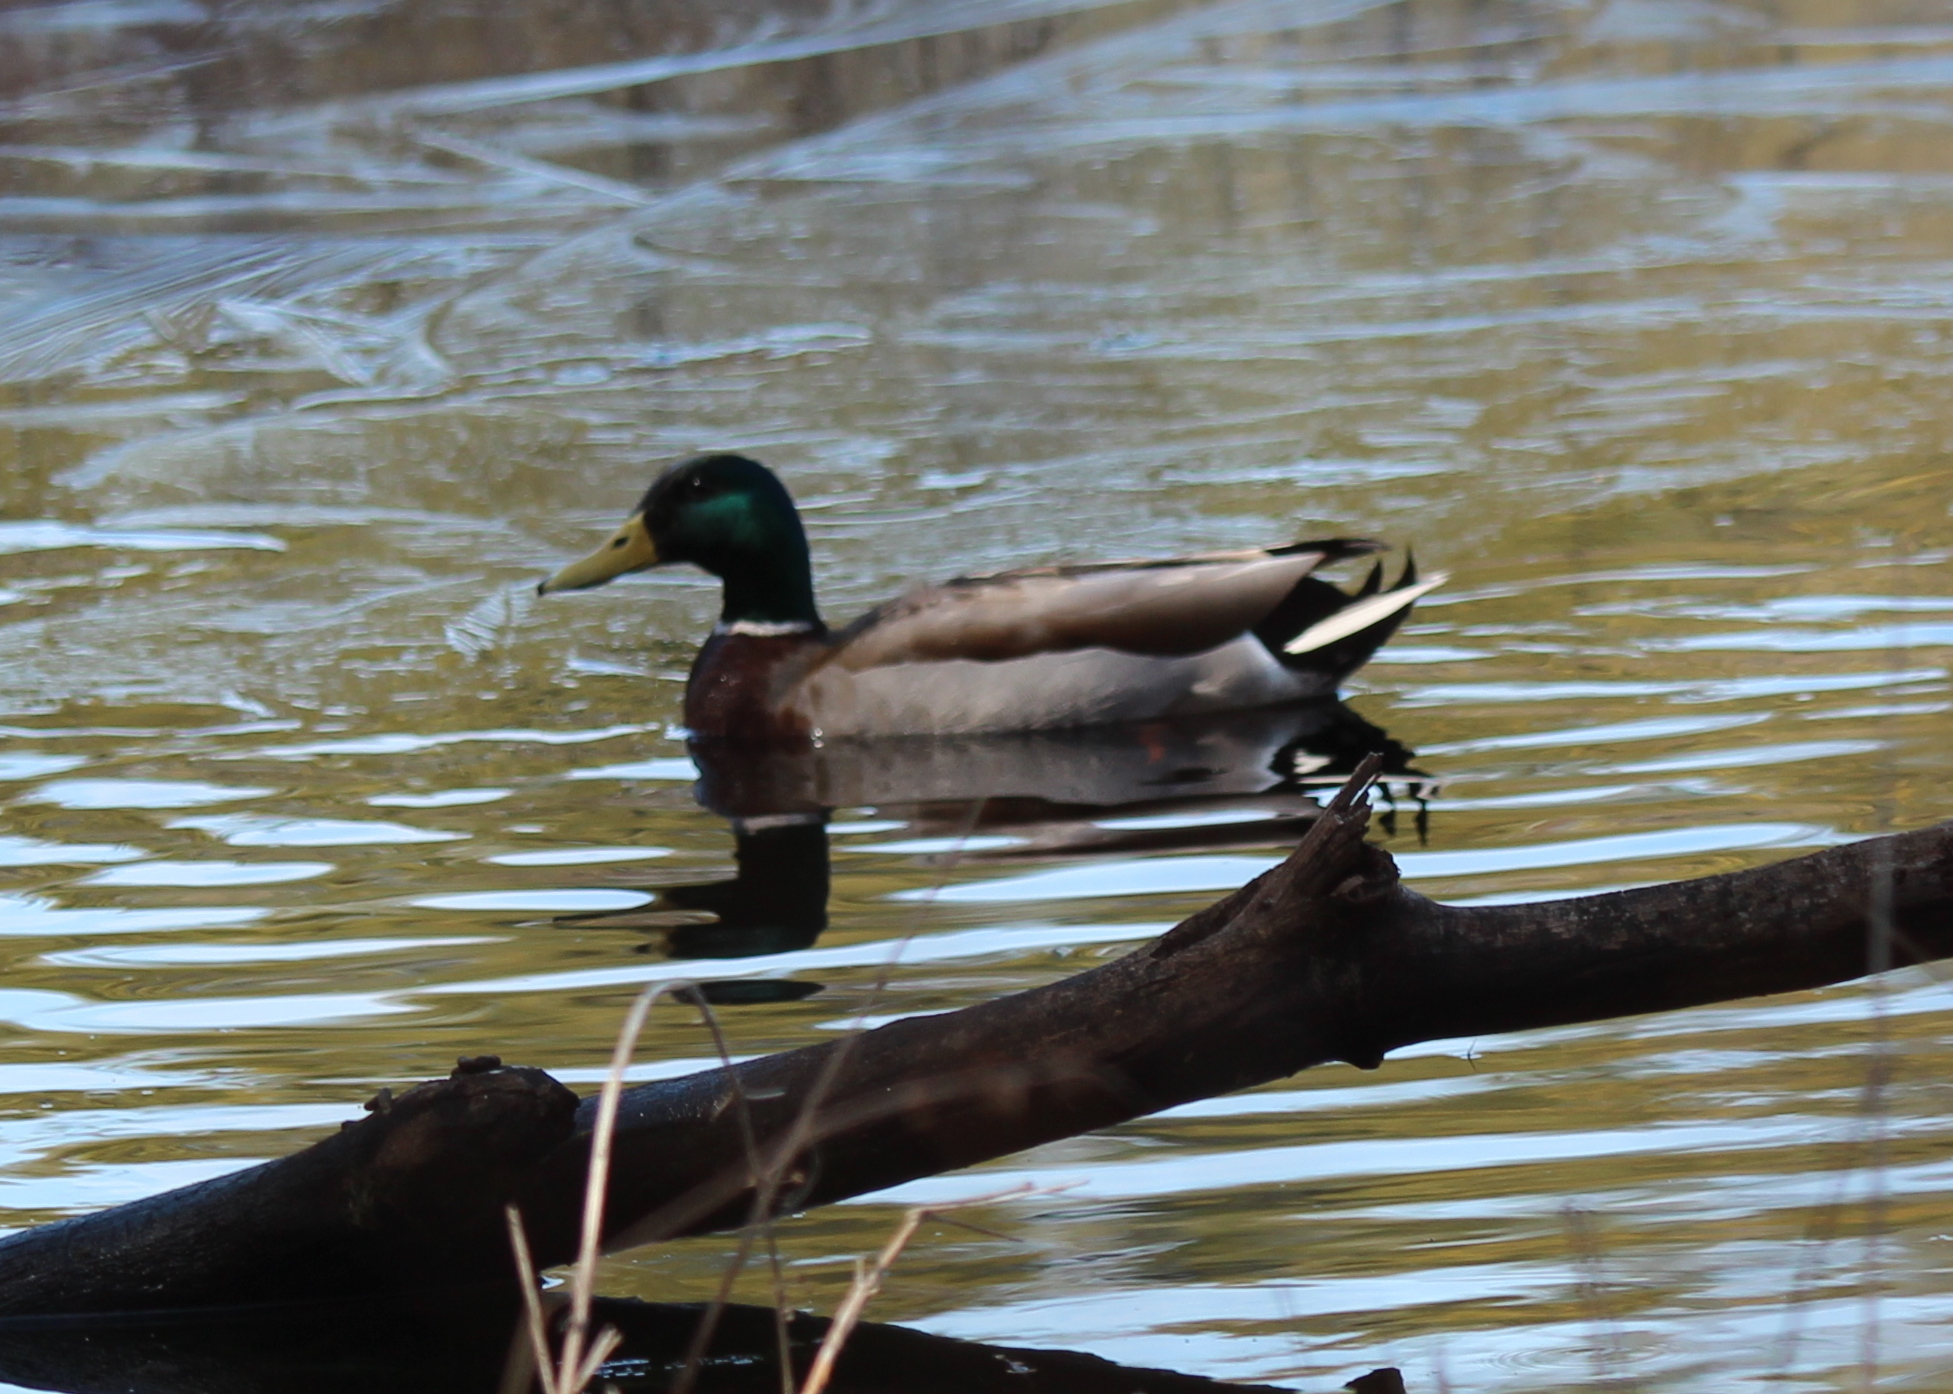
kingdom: Animalia
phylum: Chordata
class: Aves
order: Anseriformes
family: Anatidae
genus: Anas
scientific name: Anas platyrhynchos
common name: Mallard
